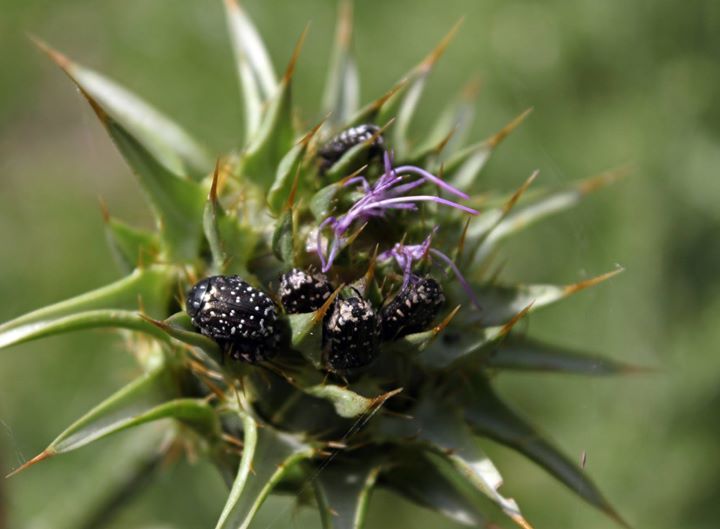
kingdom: Animalia
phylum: Arthropoda
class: Insecta
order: Coleoptera
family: Scarabaeidae
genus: Oxythyrea
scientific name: Oxythyrea funesta
